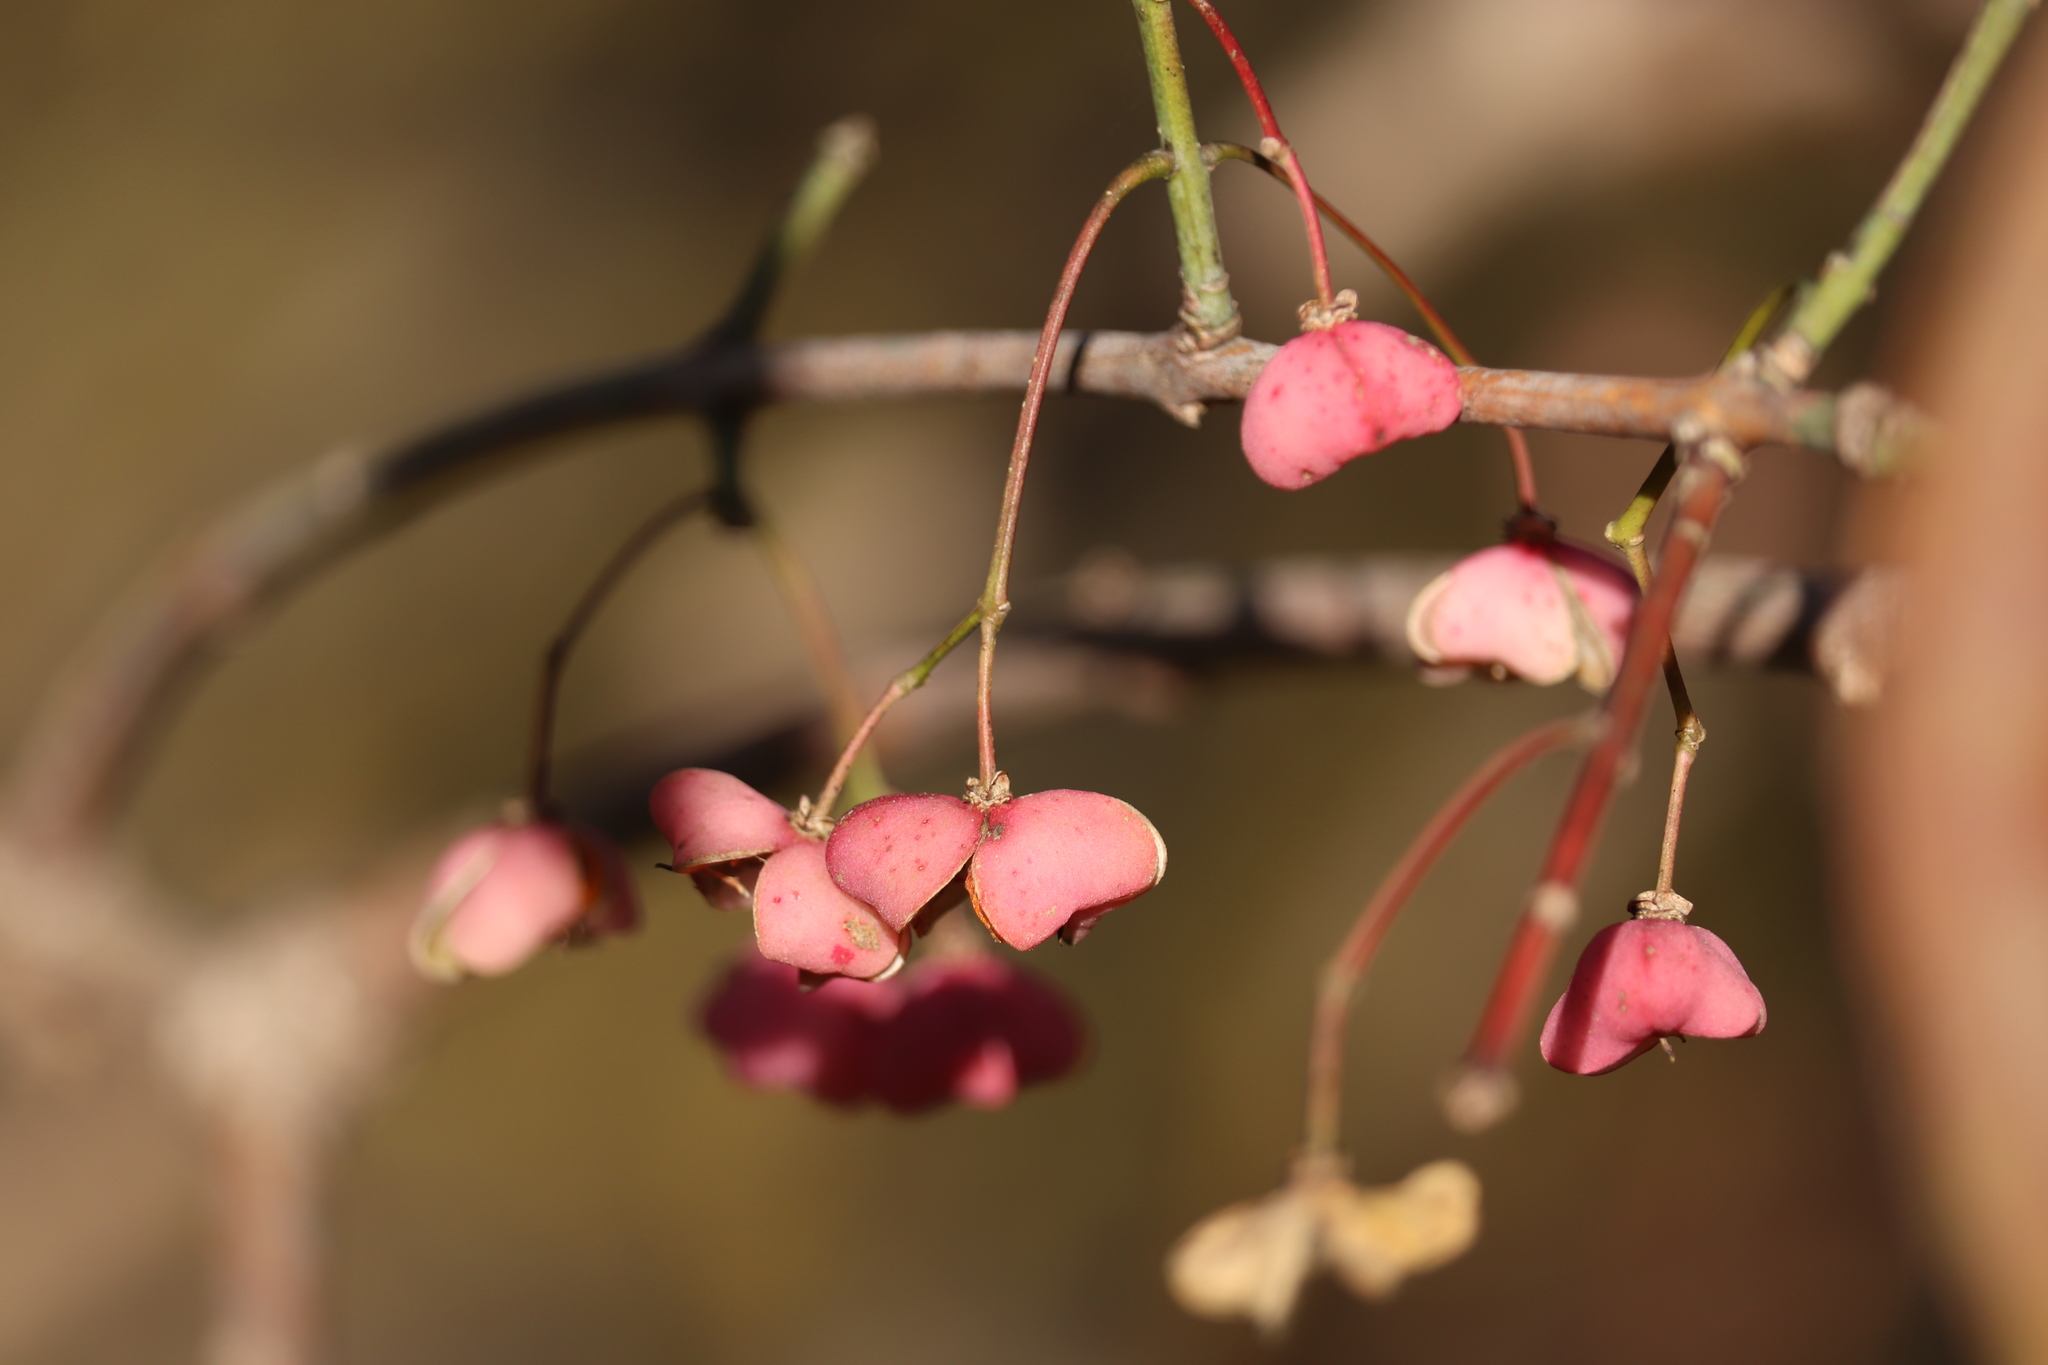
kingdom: Plantae
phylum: Tracheophyta
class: Magnoliopsida
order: Celastrales
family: Celastraceae
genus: Euonymus
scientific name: Euonymus hamiltonianus
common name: Hamilton's spindletree
